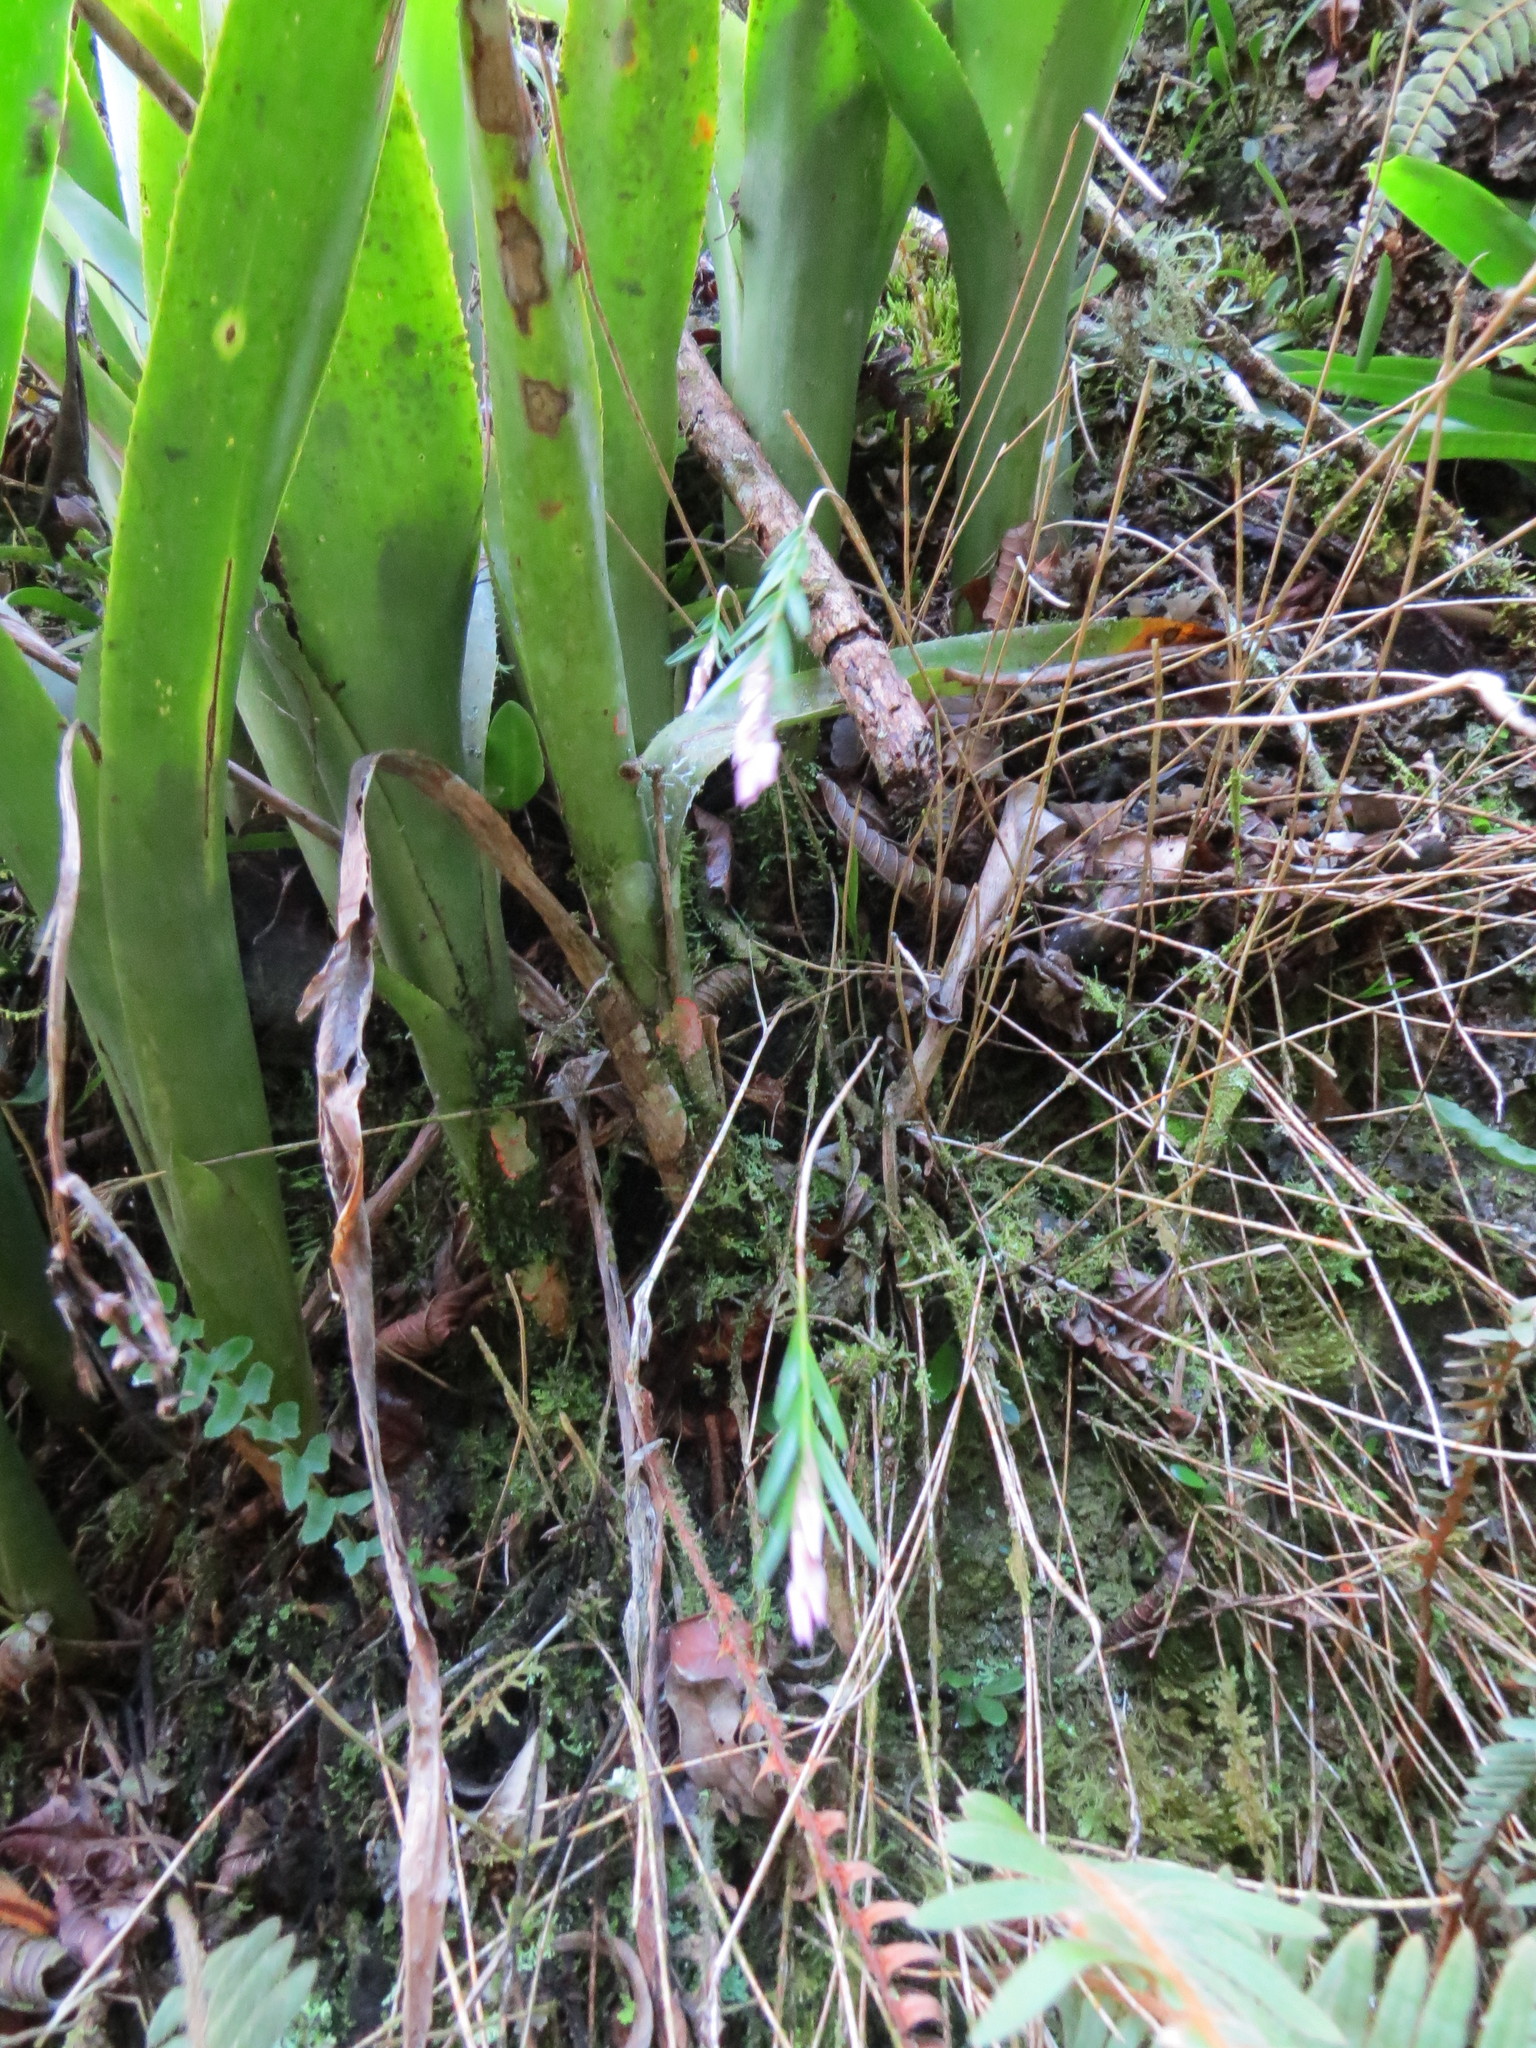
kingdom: Plantae
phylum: Tracheophyta
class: Liliopsida
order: Asparagales
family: Orchidaceae
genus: Isochilus
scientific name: Isochilus linearis
